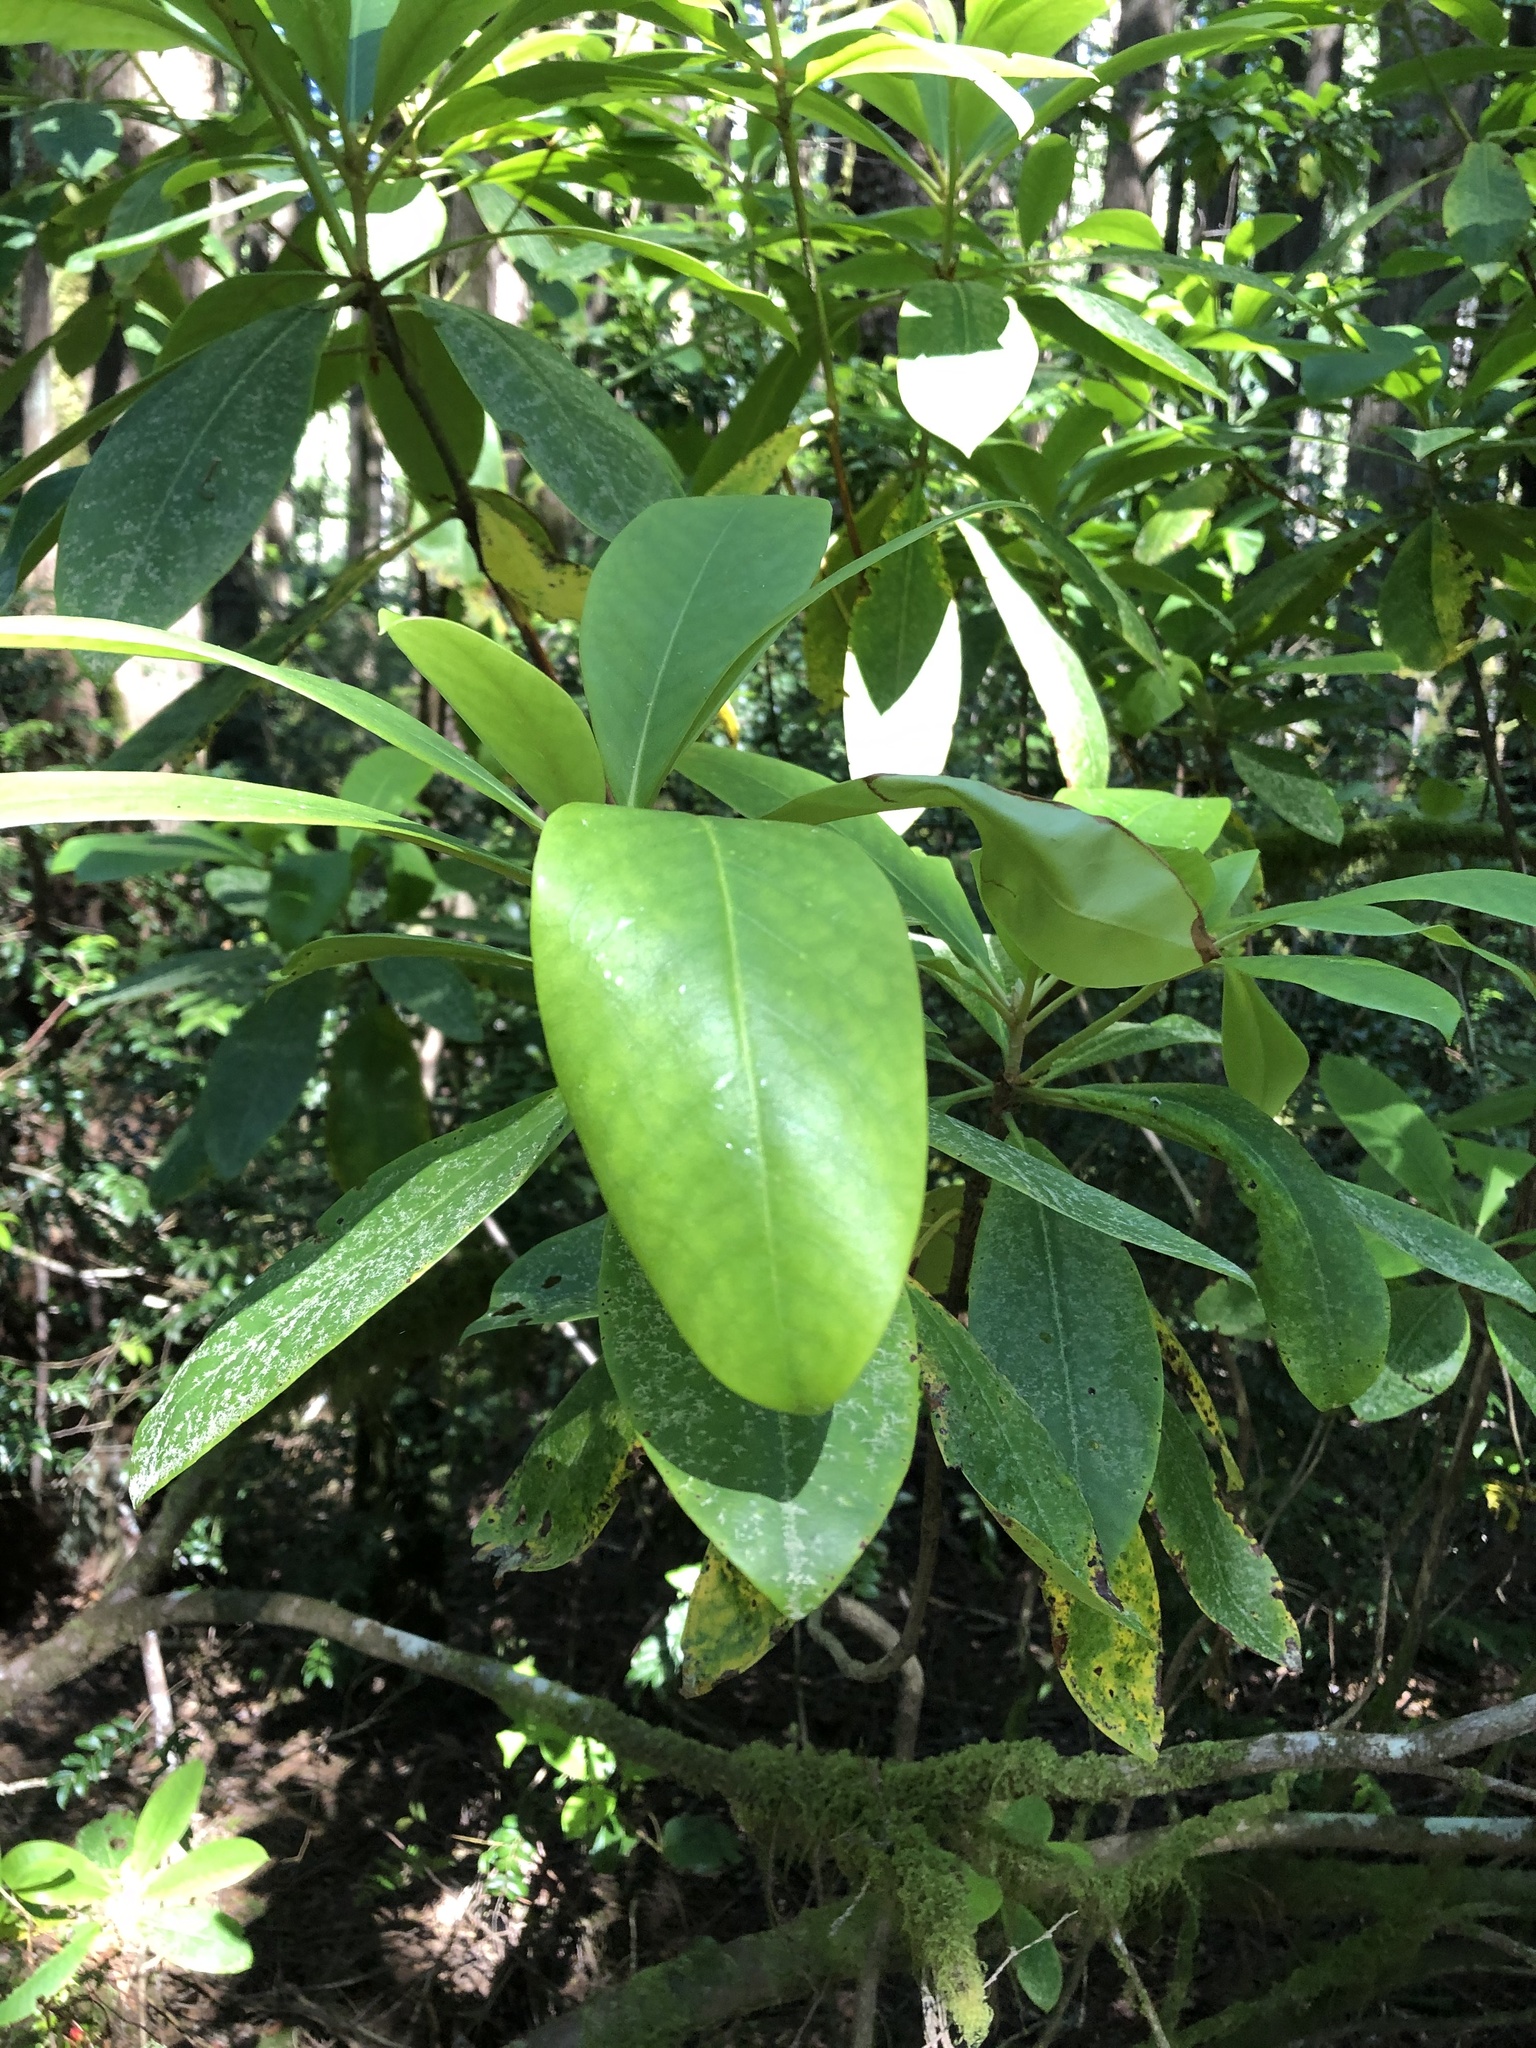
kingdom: Plantae
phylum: Tracheophyta
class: Magnoliopsida
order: Ericales
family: Ericaceae
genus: Rhododendron
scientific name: Rhododendron macrophyllum
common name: California rose bay
